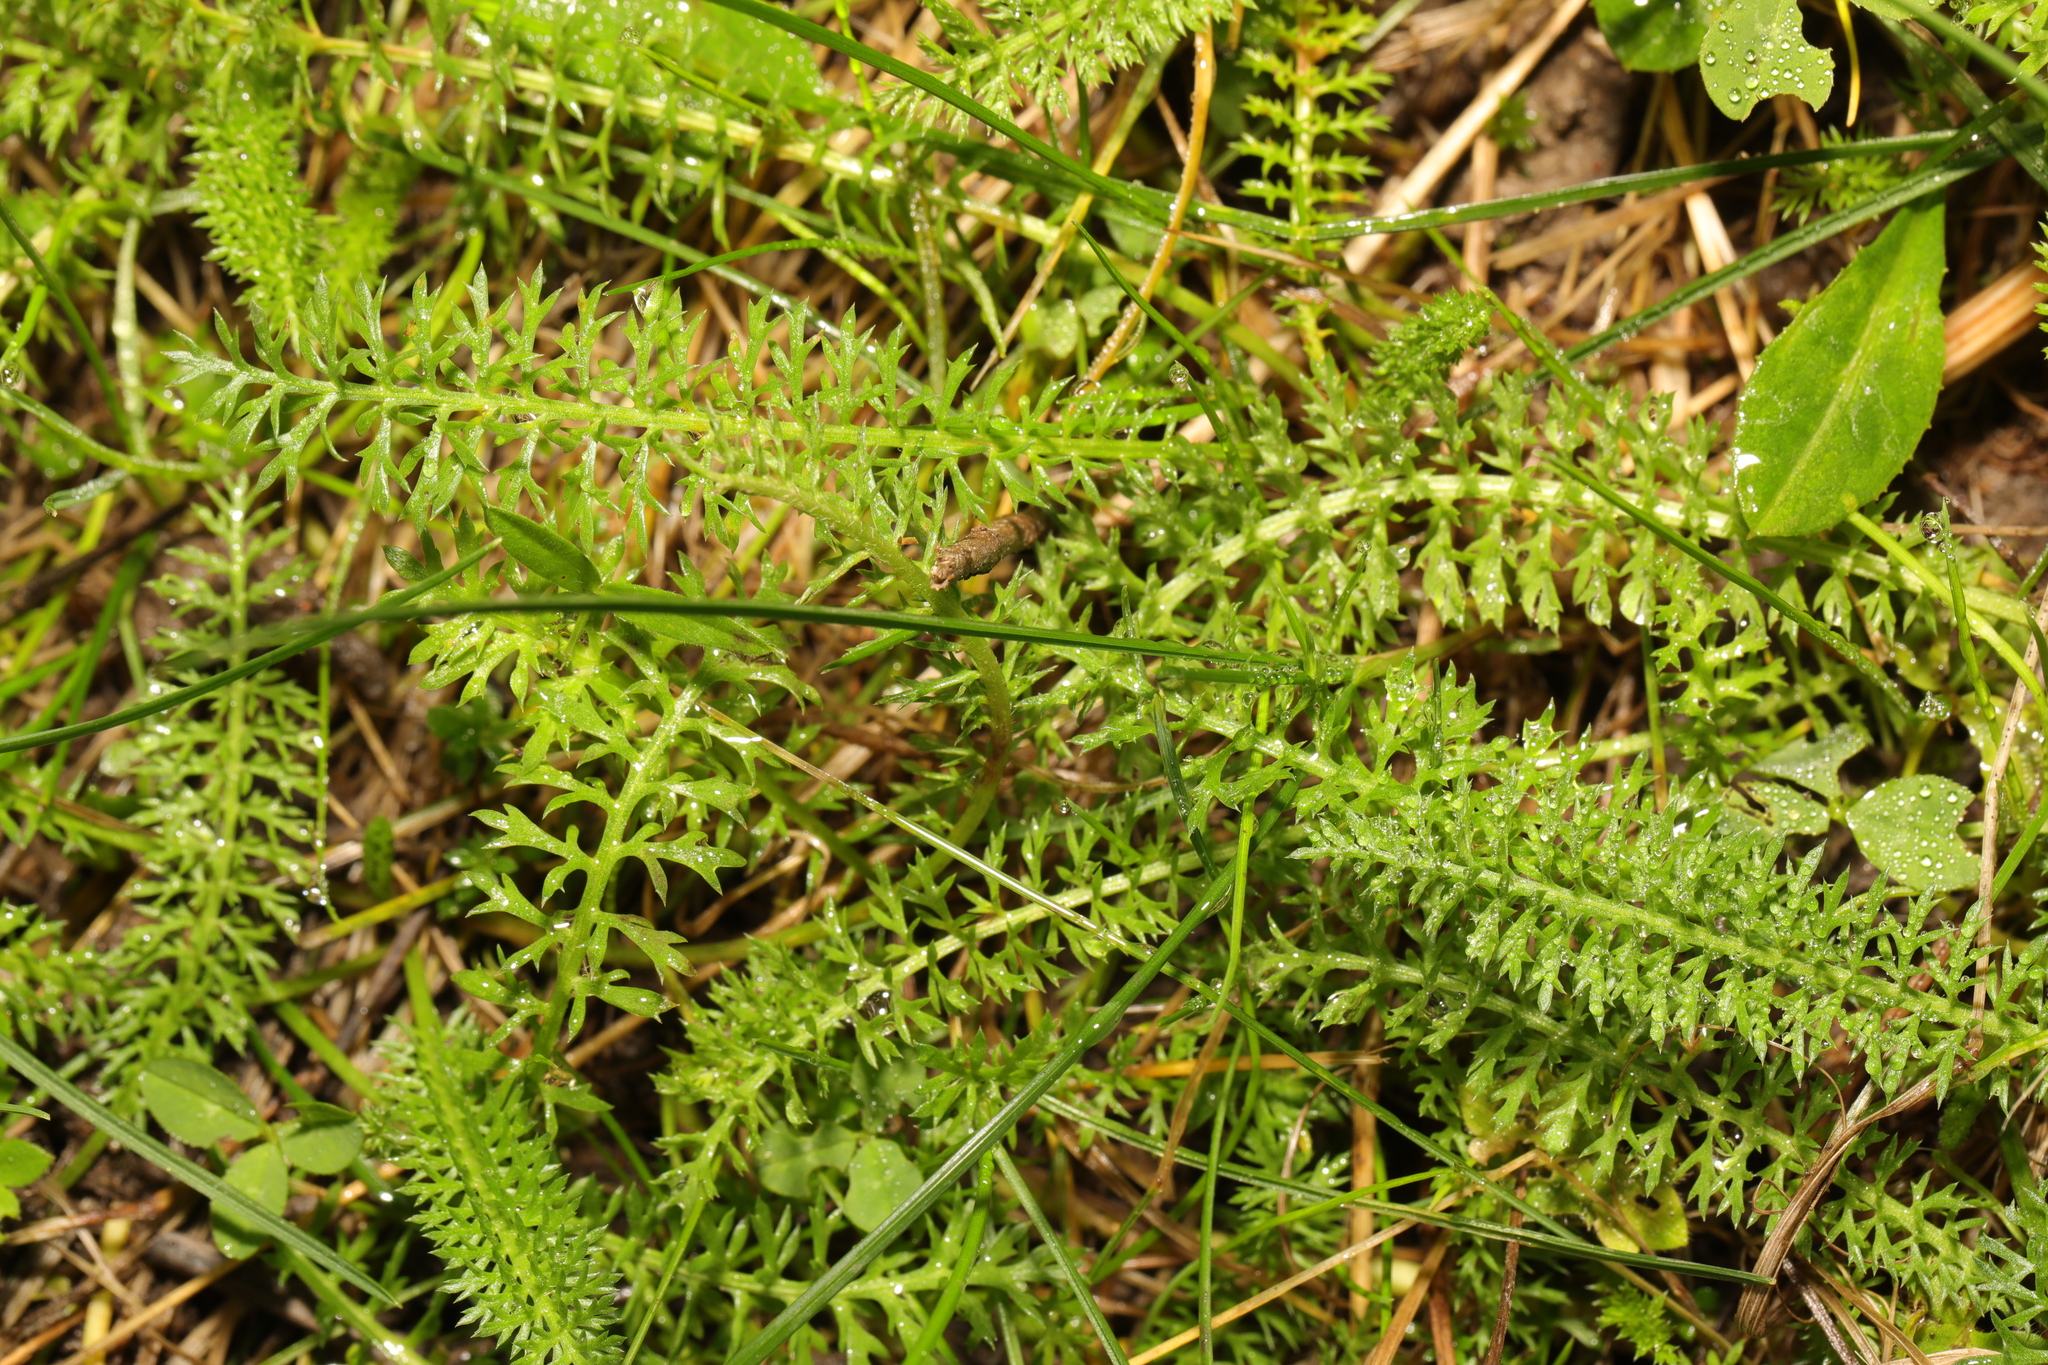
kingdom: Plantae
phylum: Tracheophyta
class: Magnoliopsida
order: Asterales
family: Asteraceae
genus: Achillea
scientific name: Achillea millefolium
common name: Yarrow
